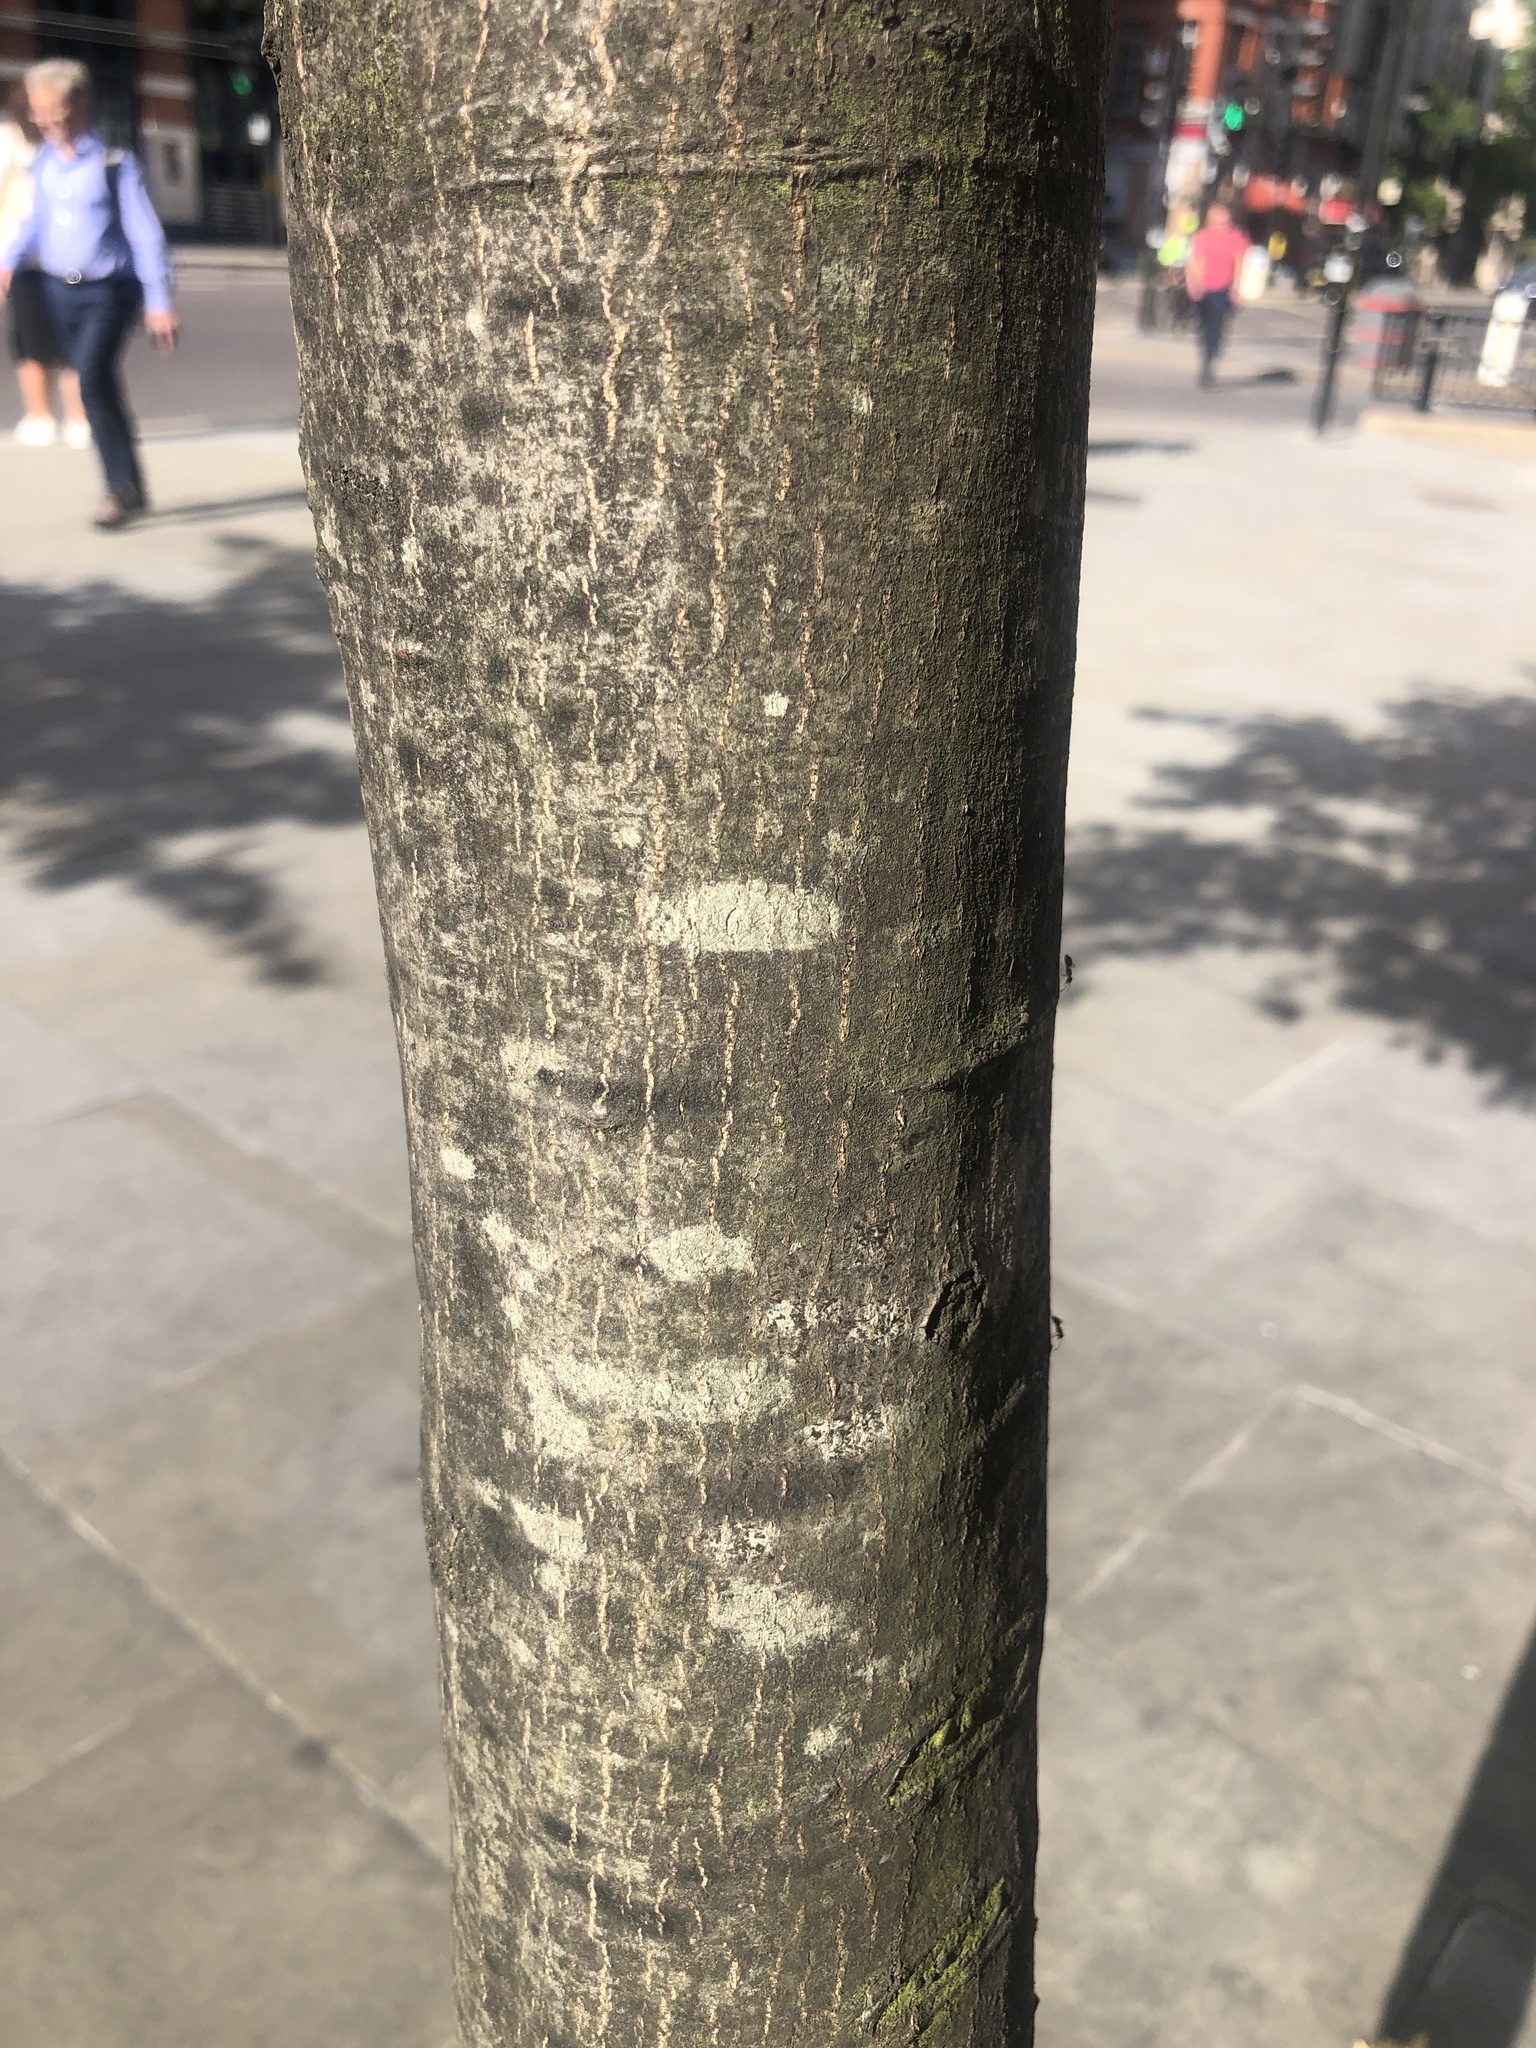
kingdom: Plantae
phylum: Tracheophyta
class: Magnoliopsida
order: Fagales
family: Betulaceae
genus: Carpinus
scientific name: Carpinus betulus
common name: Hornbeam
